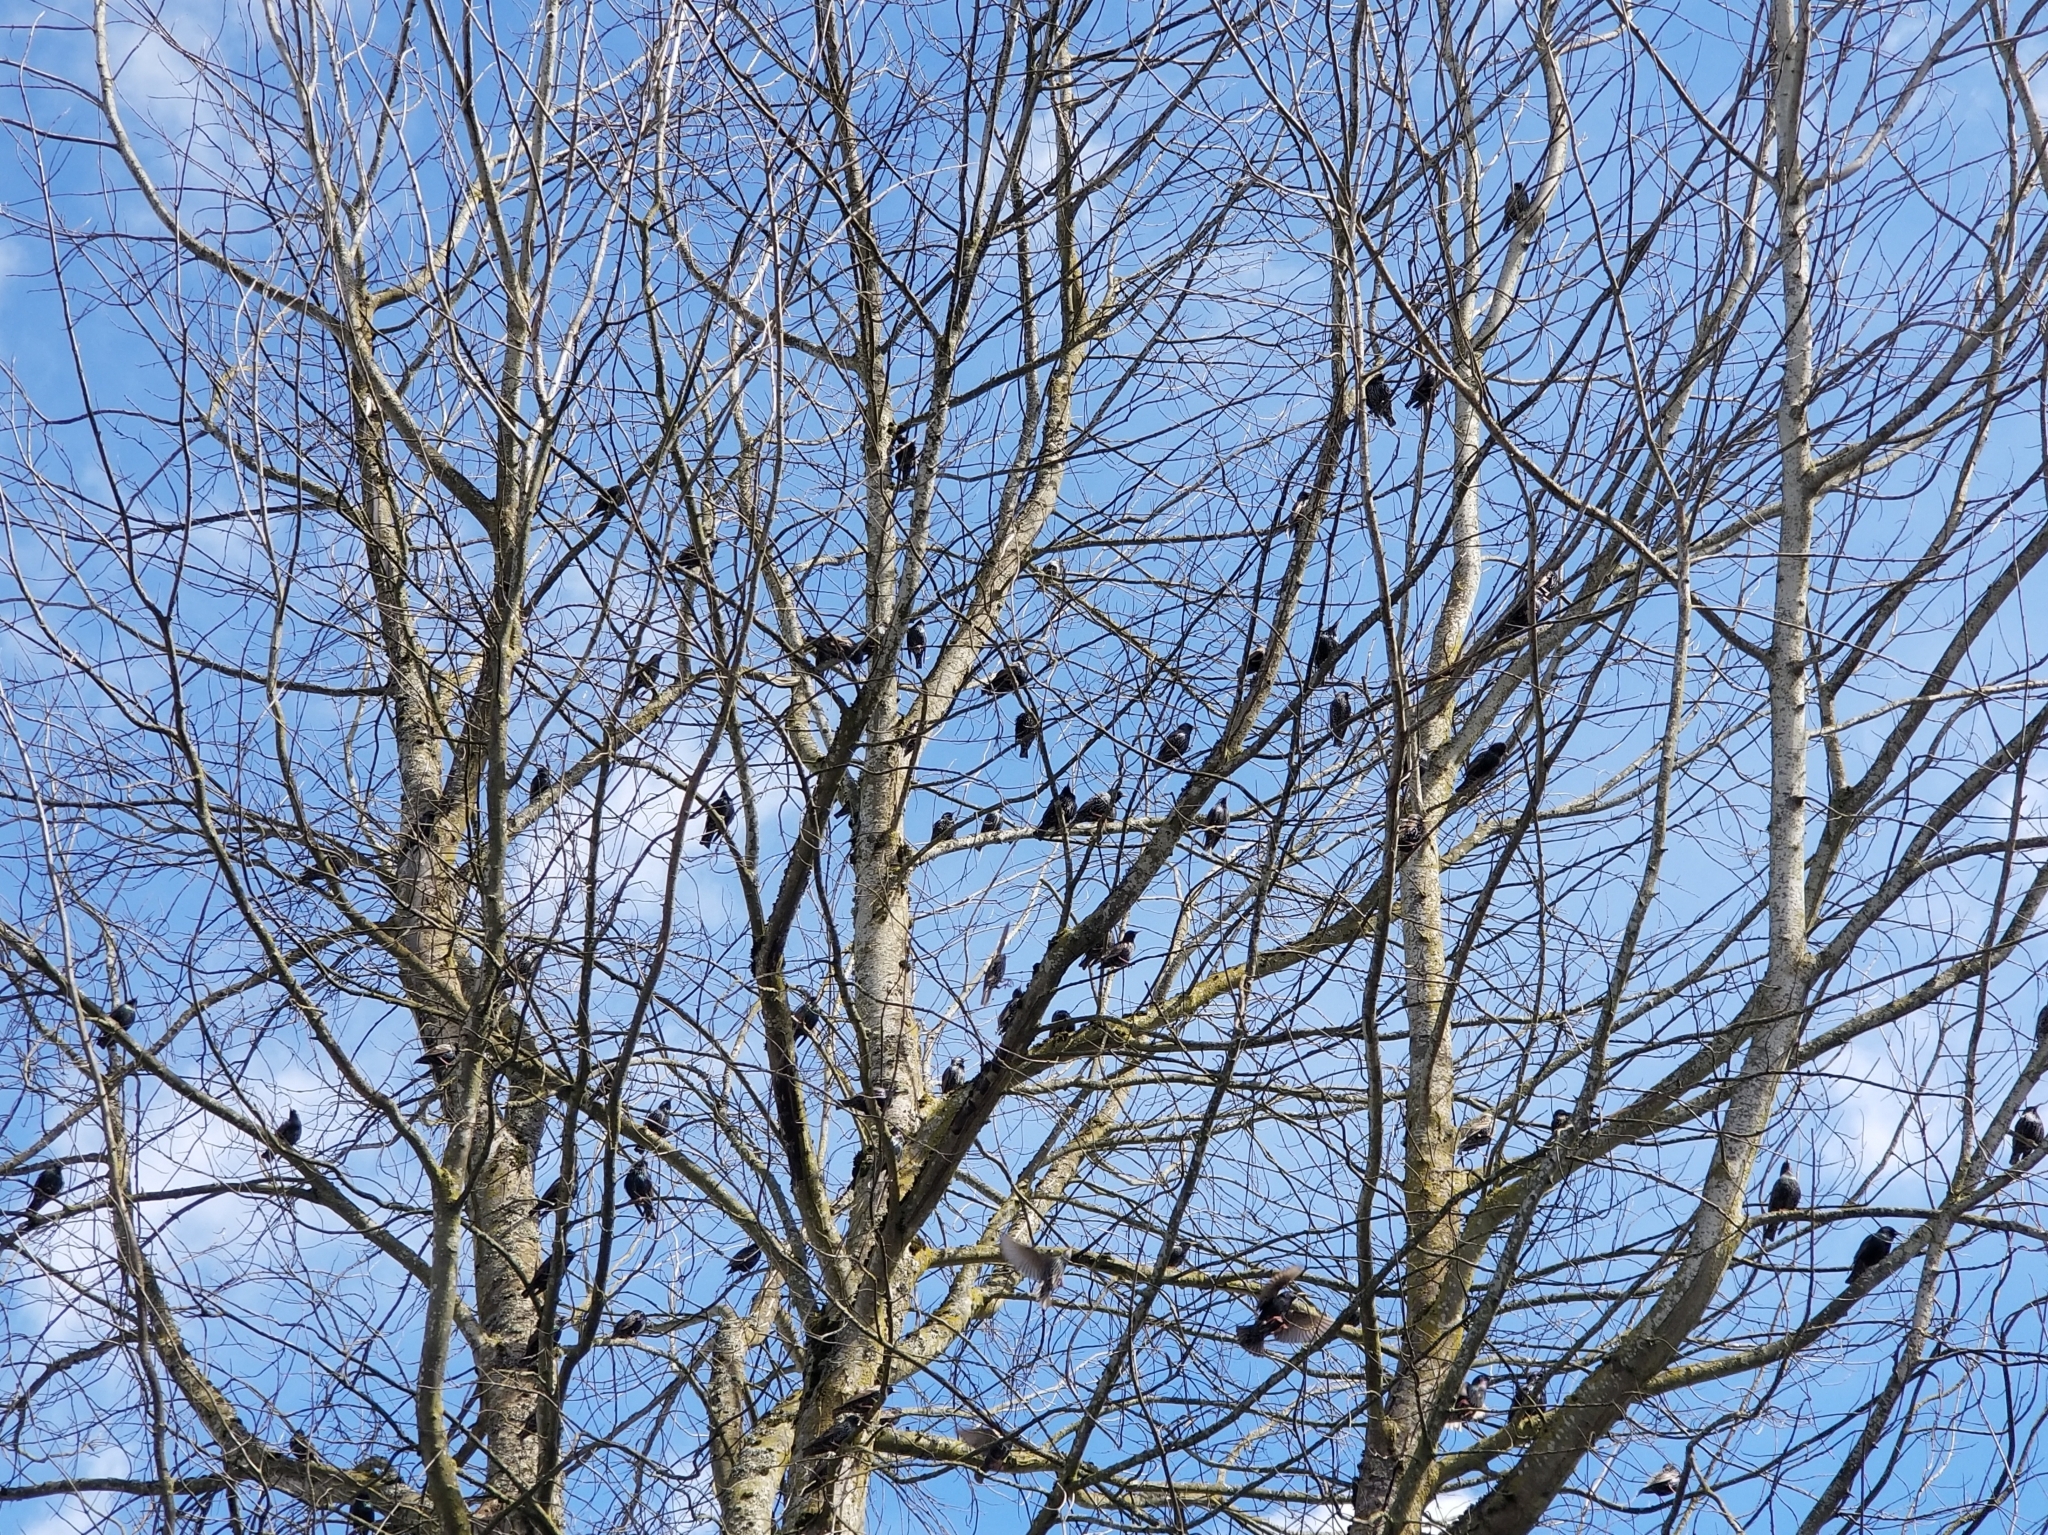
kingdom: Animalia
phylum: Chordata
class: Aves
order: Passeriformes
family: Sturnidae
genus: Sturnus
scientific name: Sturnus vulgaris
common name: Common starling
